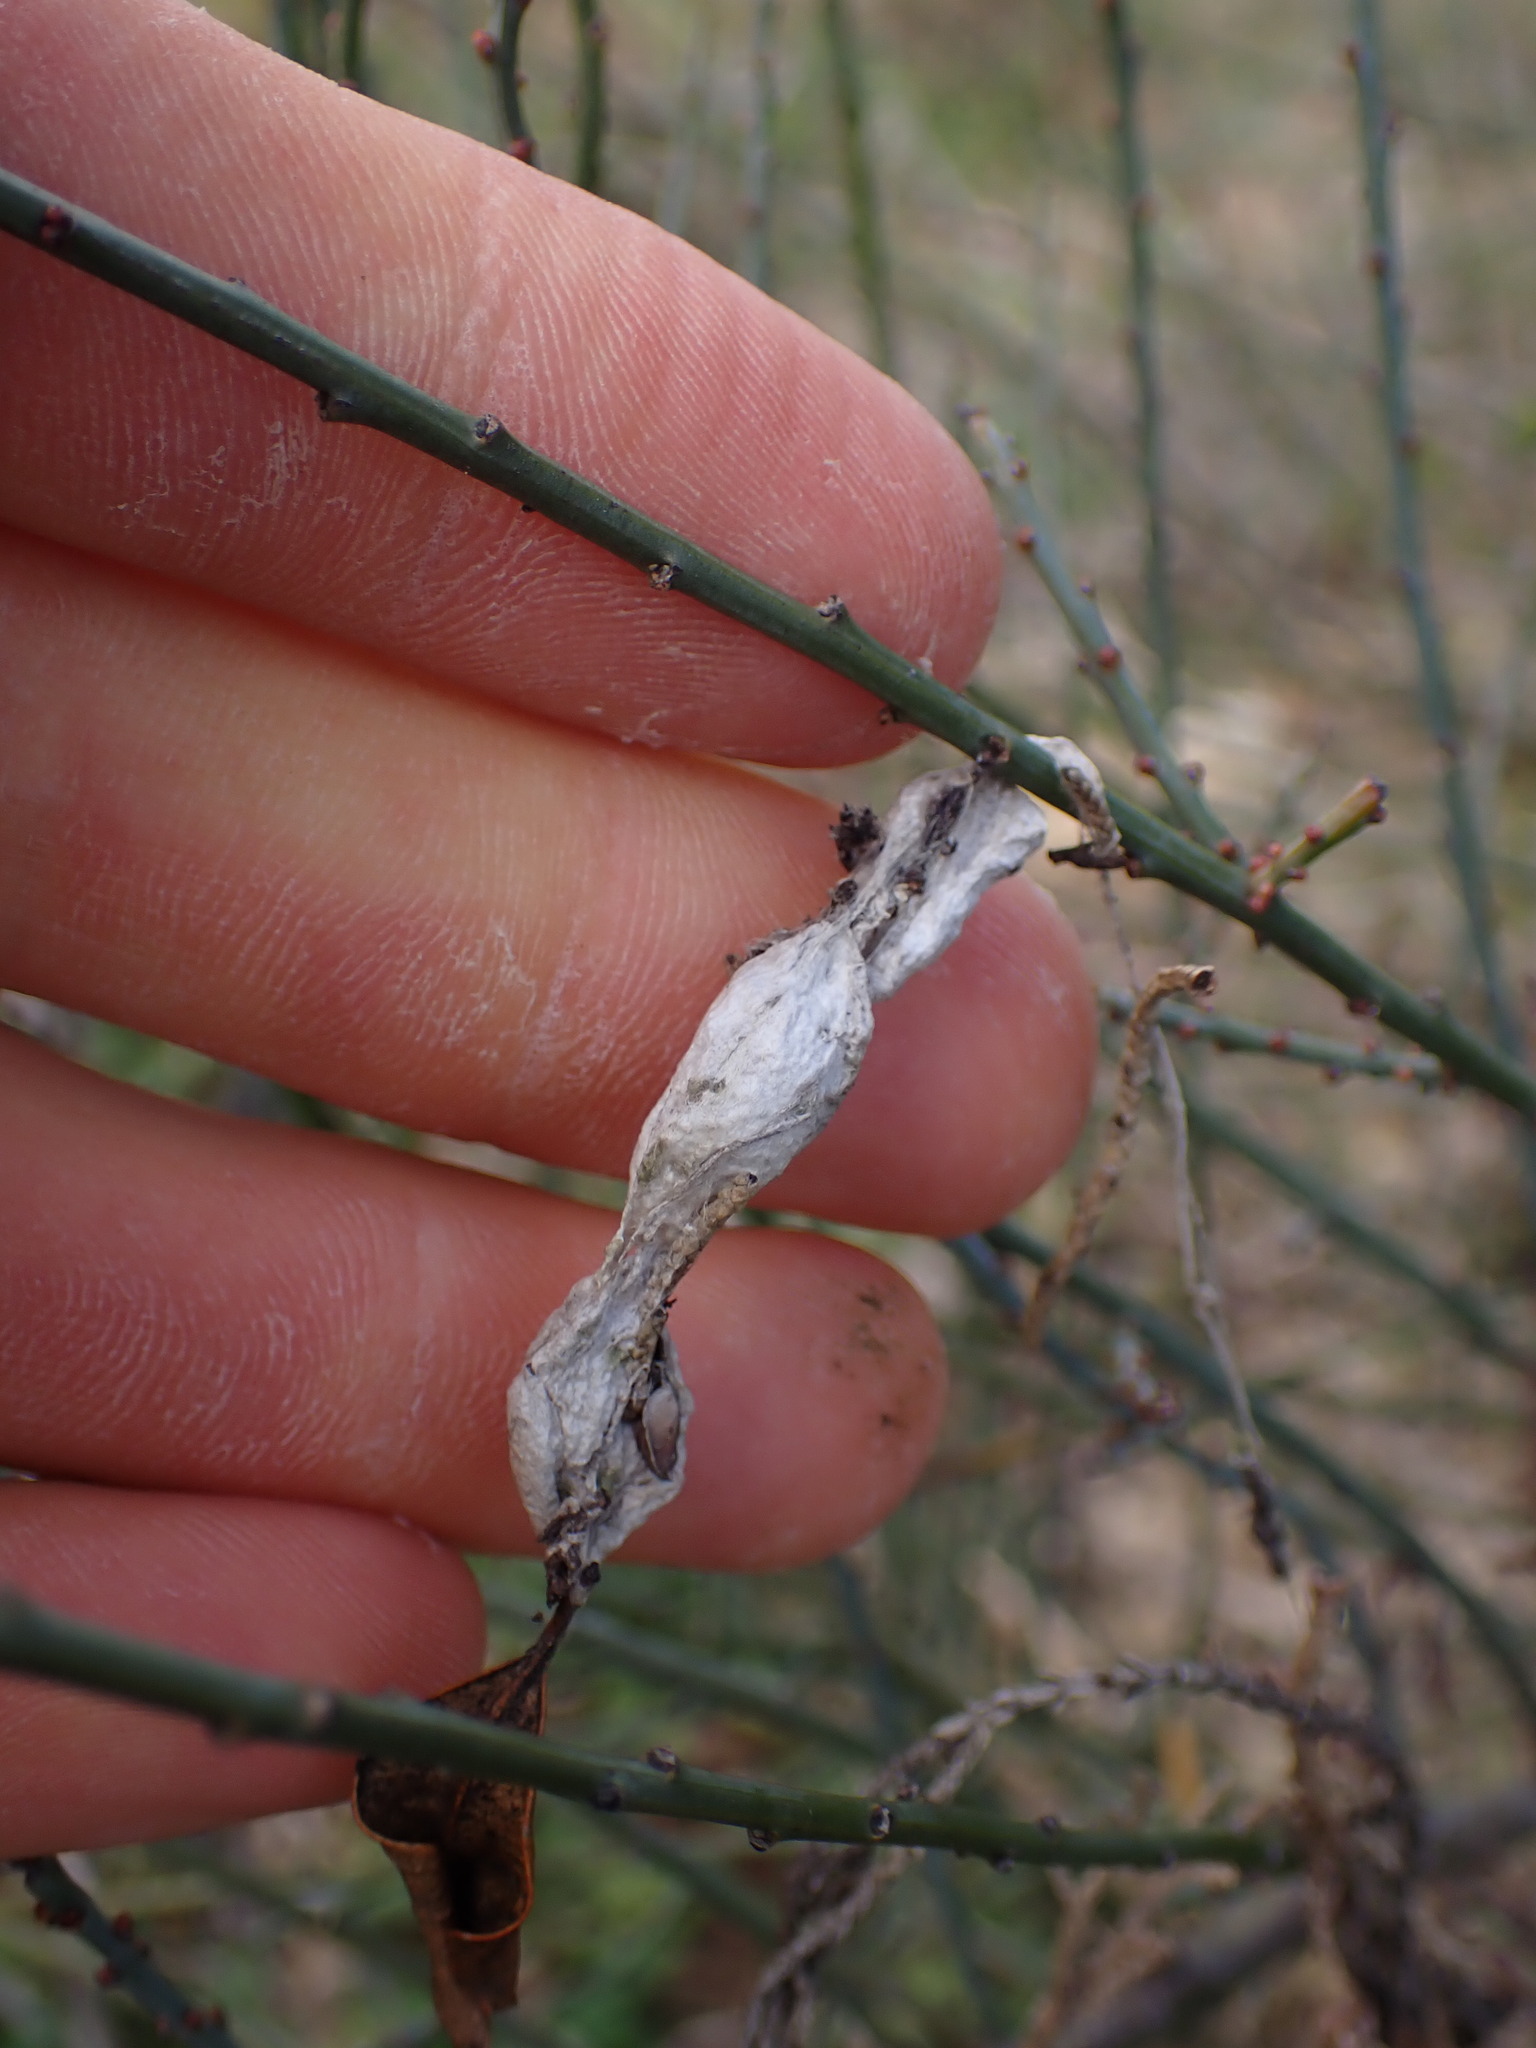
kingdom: Animalia
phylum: Arthropoda
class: Arachnida
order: Araneae
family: Araneidae
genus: Cyrtophora
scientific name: Cyrtophora citricola
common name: Orb weavers
